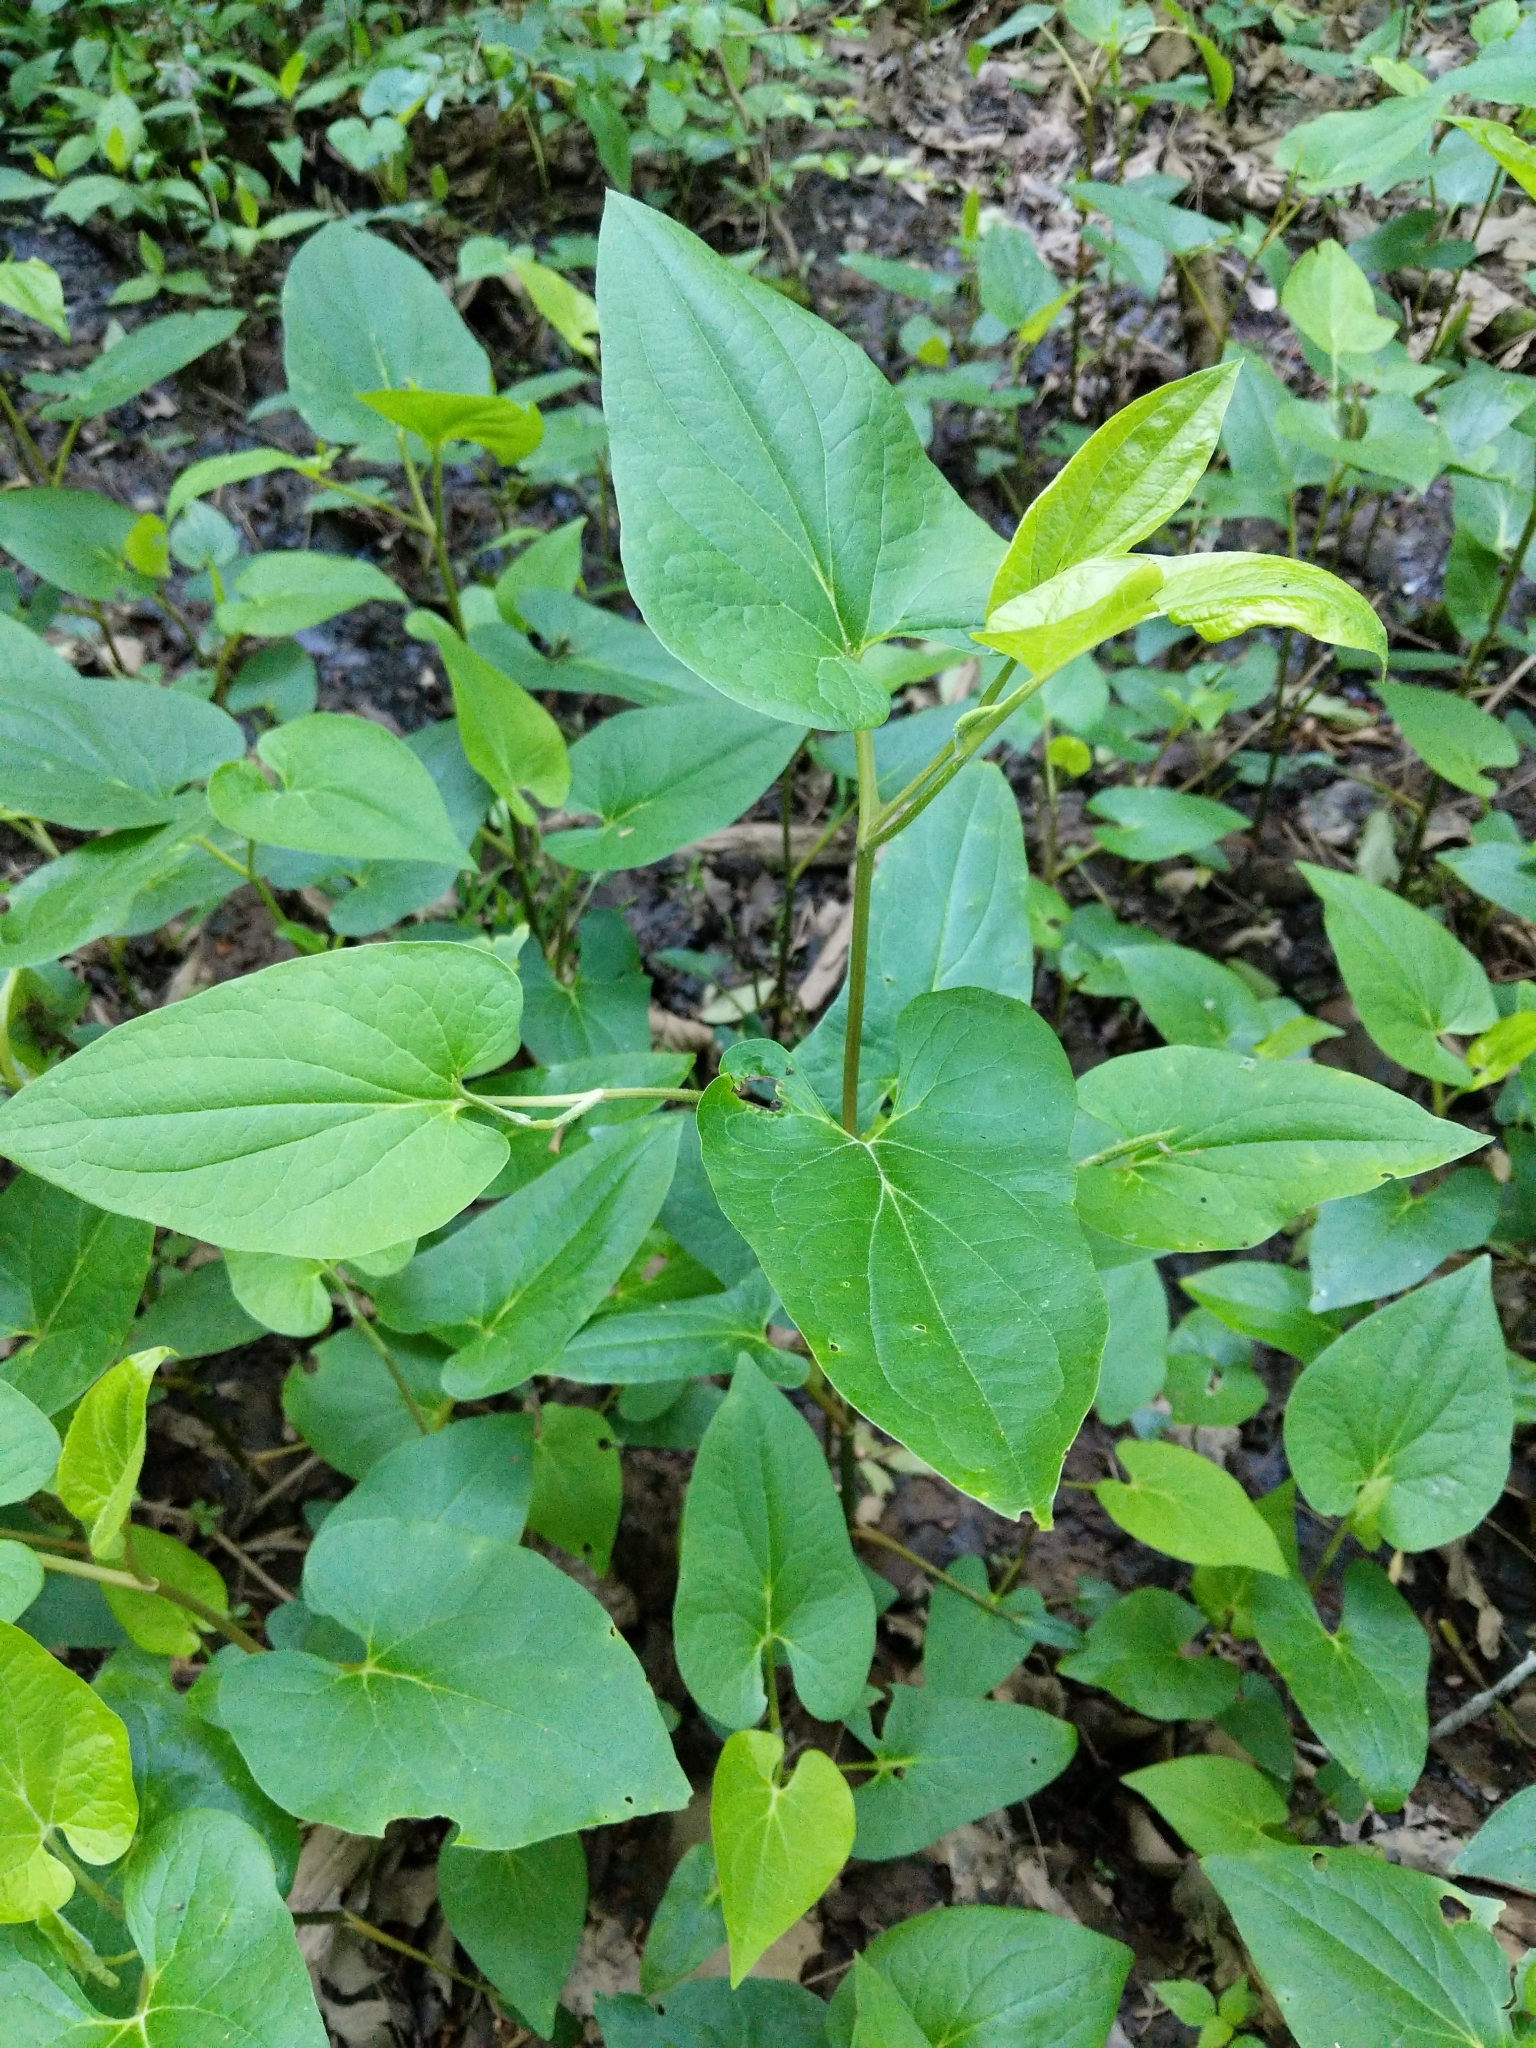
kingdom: Plantae
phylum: Tracheophyta
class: Magnoliopsida
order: Piperales
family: Saururaceae
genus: Saururus
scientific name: Saururus cernuus
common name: Lizard's-tail
